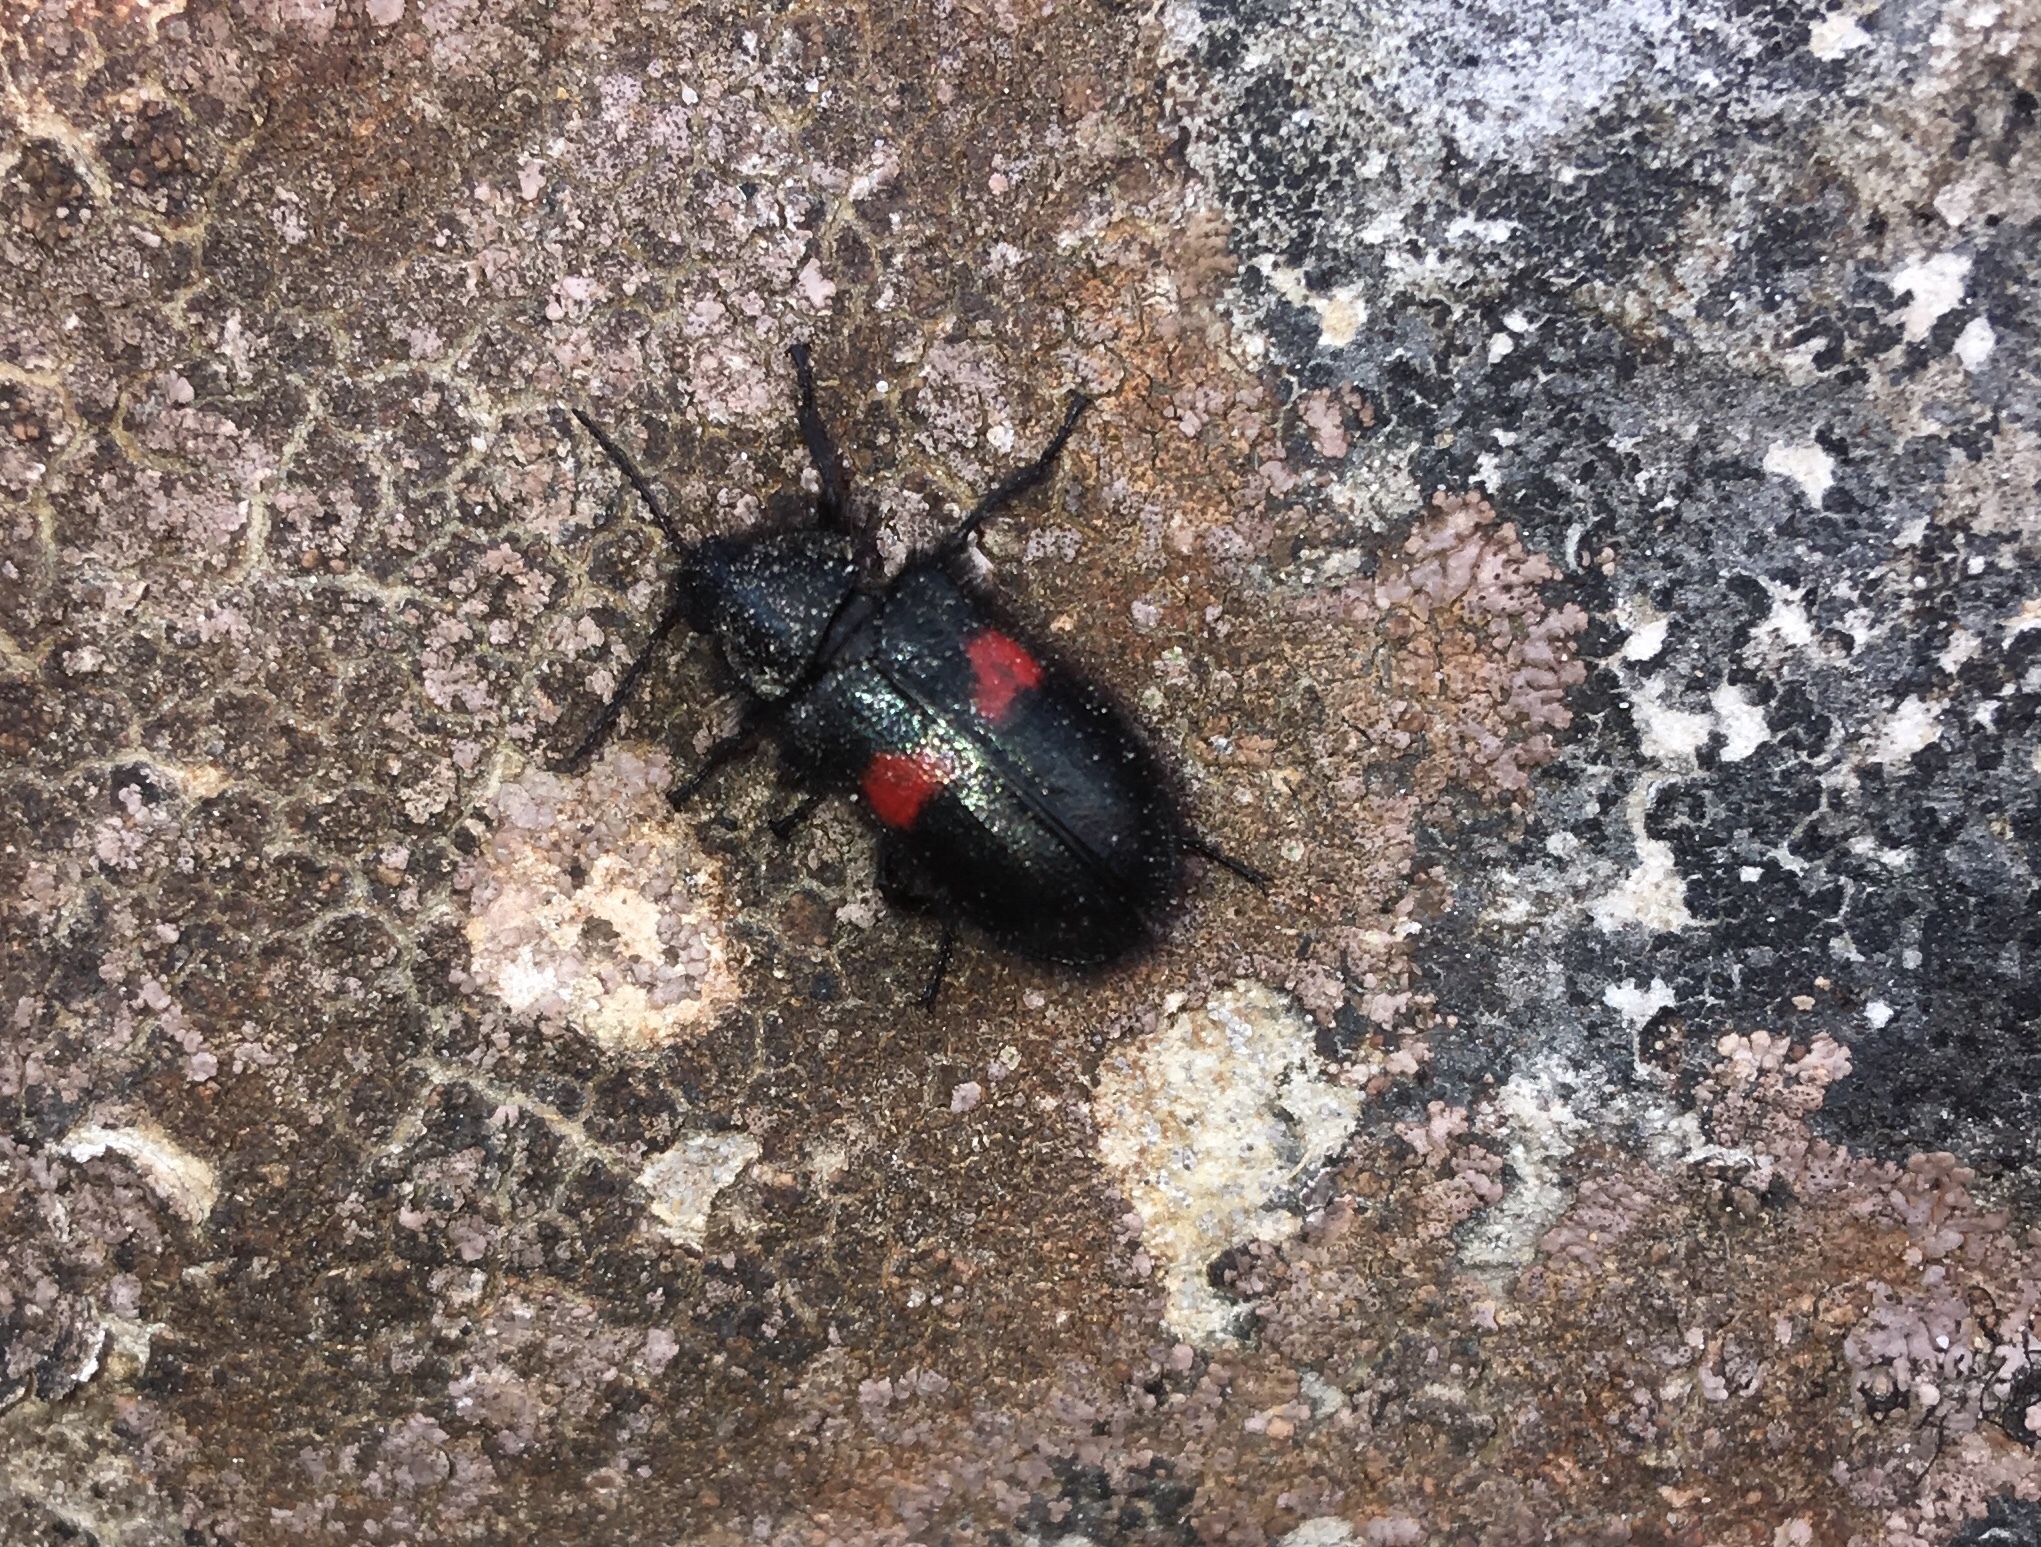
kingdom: Animalia
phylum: Arthropoda
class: Insecta
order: Coleoptera
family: Melyridae
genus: Astylus
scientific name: Astylus
